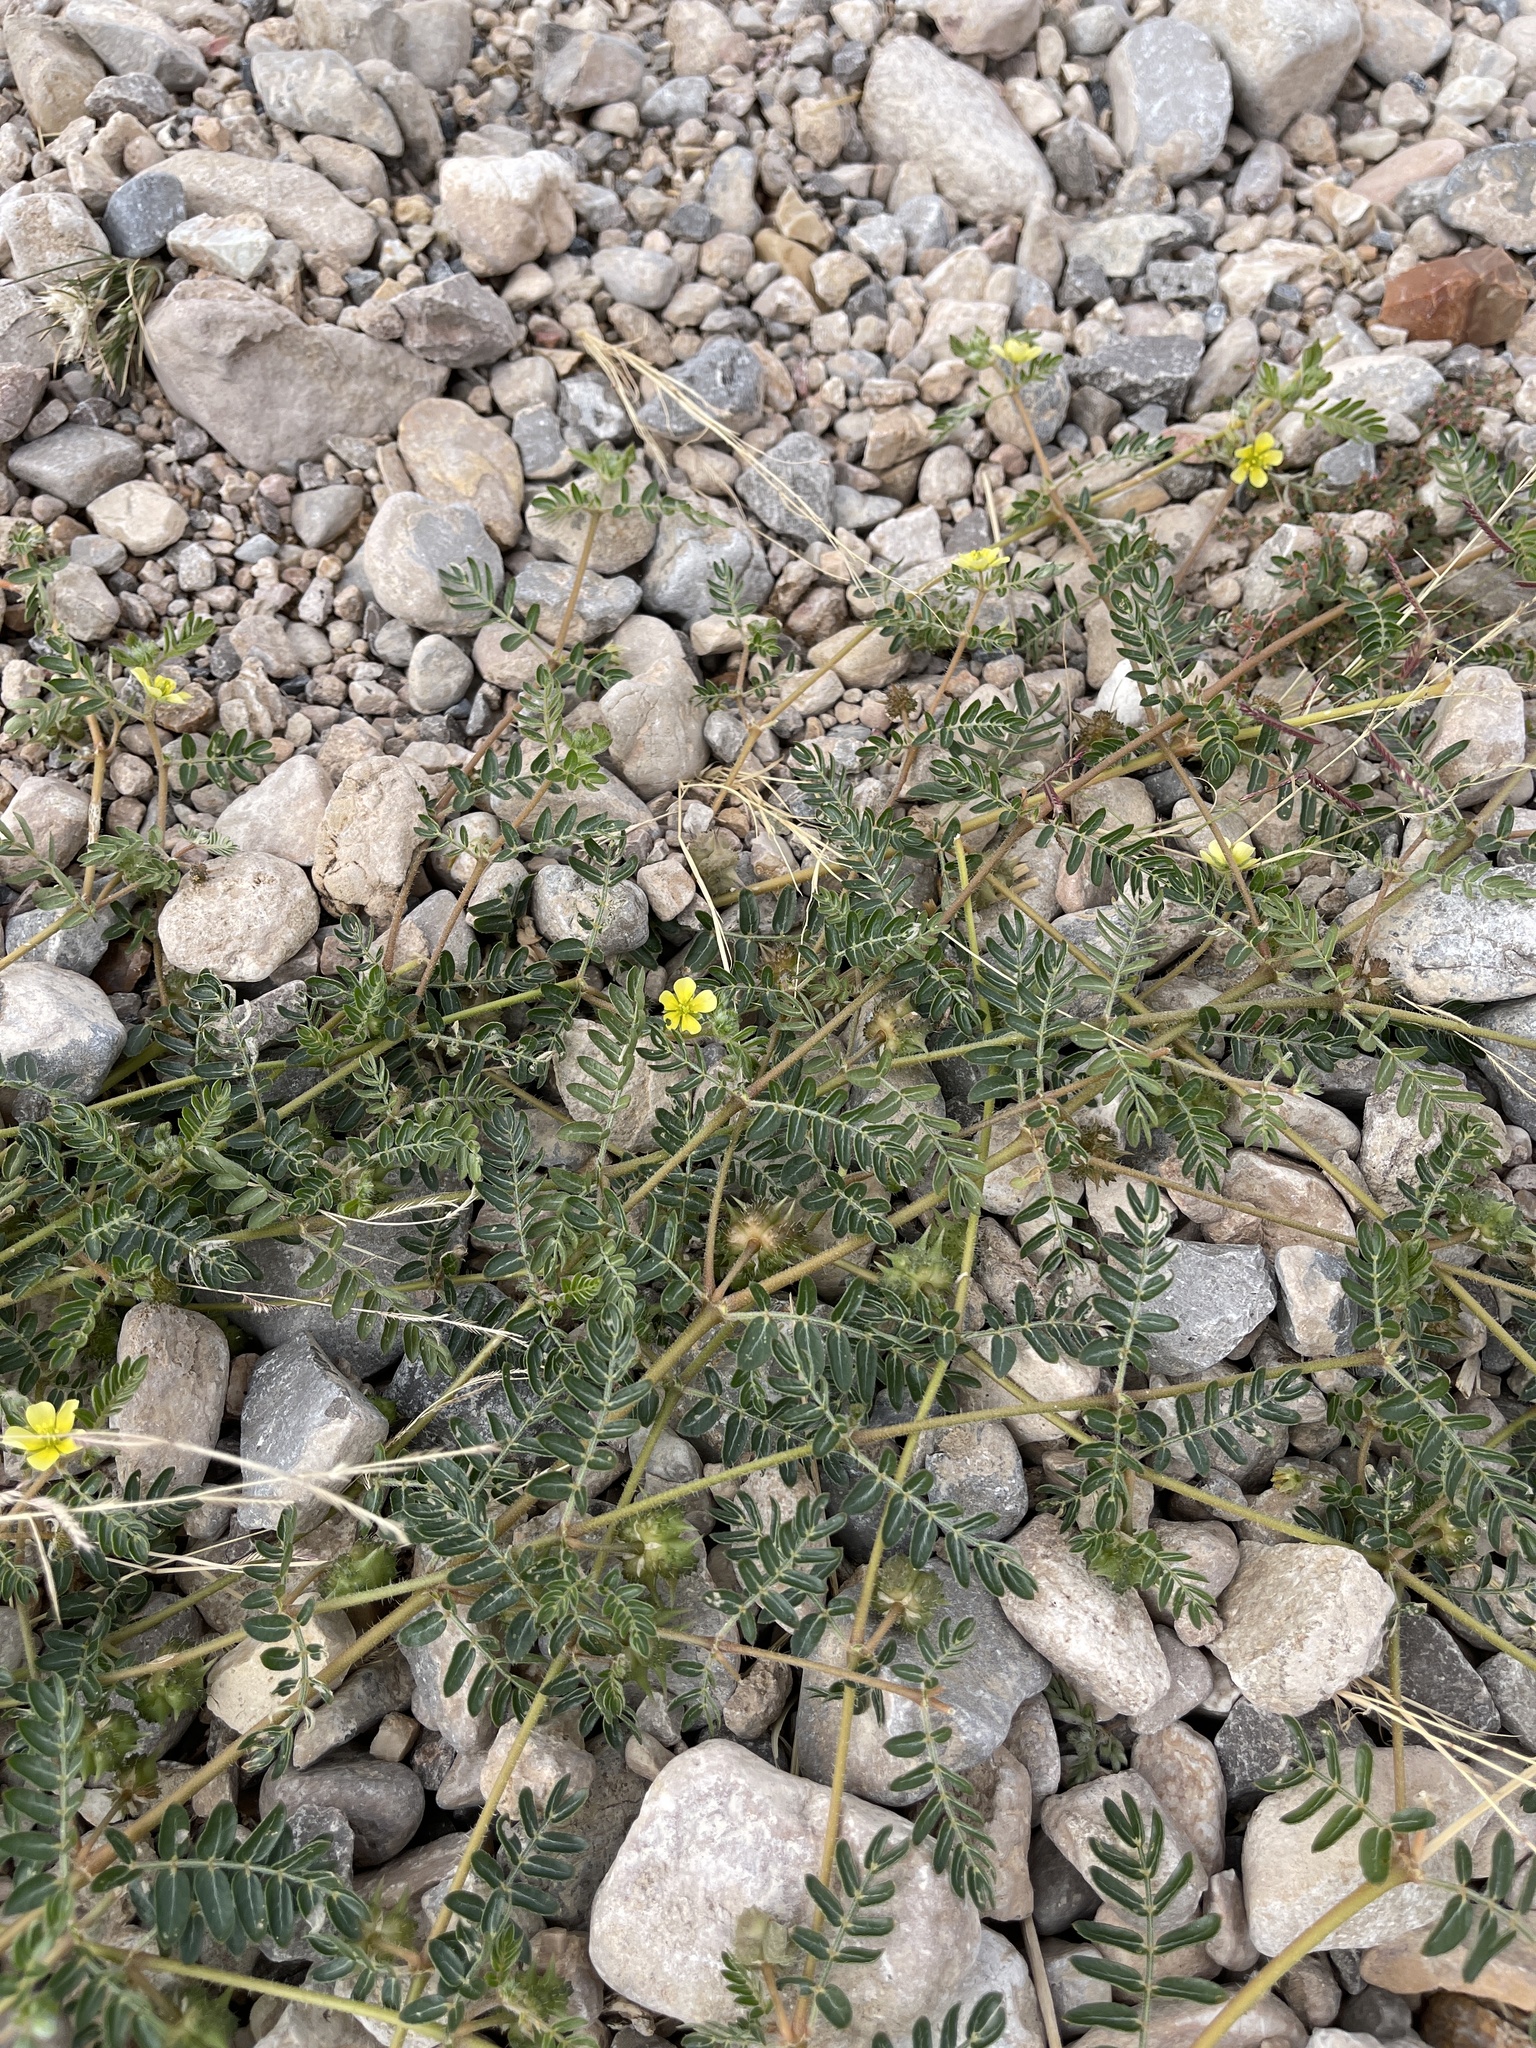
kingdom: Plantae
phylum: Tracheophyta
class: Magnoliopsida
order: Zygophyllales
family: Zygophyllaceae
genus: Tribulus
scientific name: Tribulus terrestris
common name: Puncturevine
